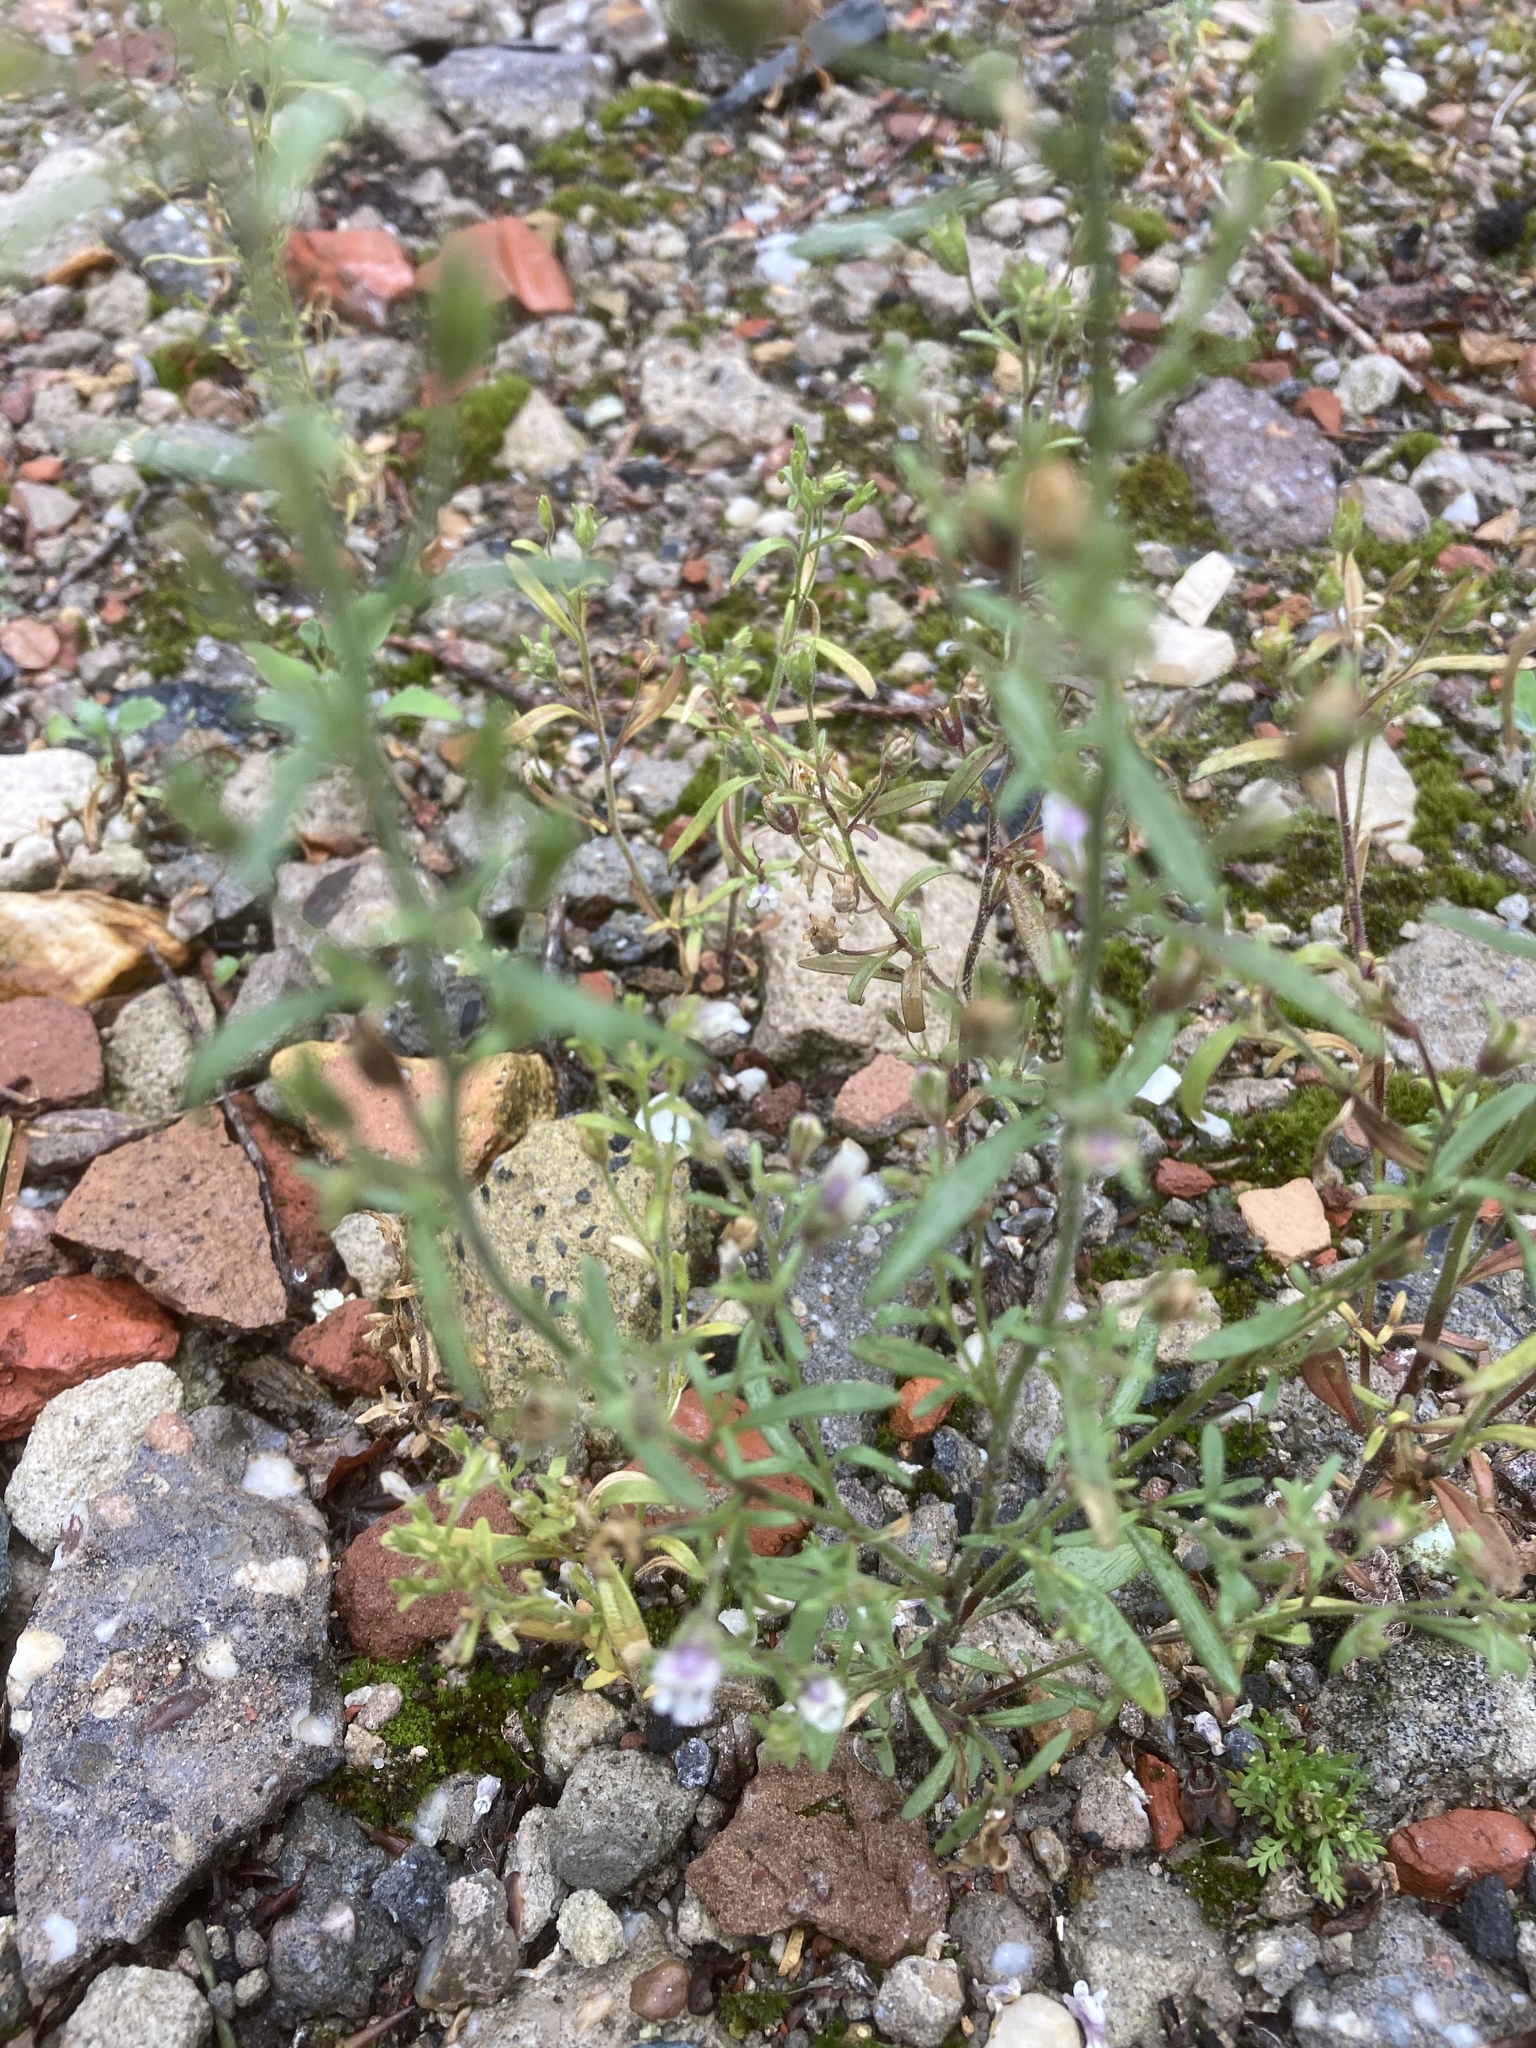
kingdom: Plantae
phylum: Tracheophyta
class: Magnoliopsida
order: Lamiales
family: Plantaginaceae
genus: Chaenorhinum
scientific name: Chaenorhinum minus
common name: Dwarf snapdragon
